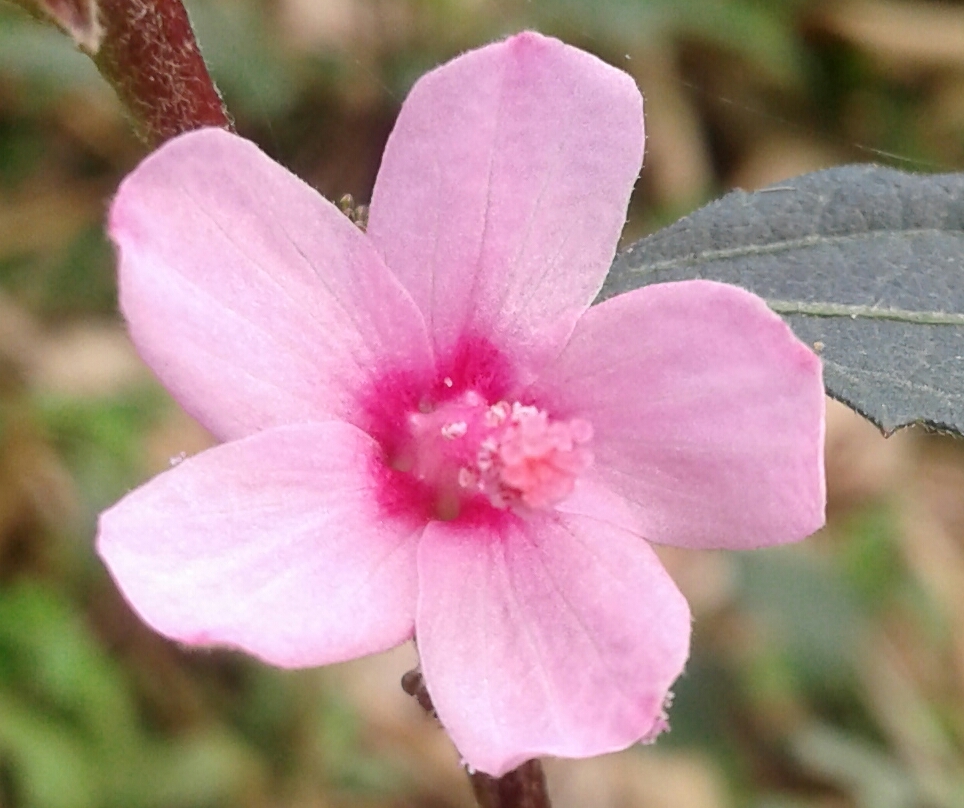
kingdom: Plantae
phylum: Tracheophyta
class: Magnoliopsida
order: Malvales
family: Malvaceae
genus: Urena
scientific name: Urena lobata
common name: Caesarweed
